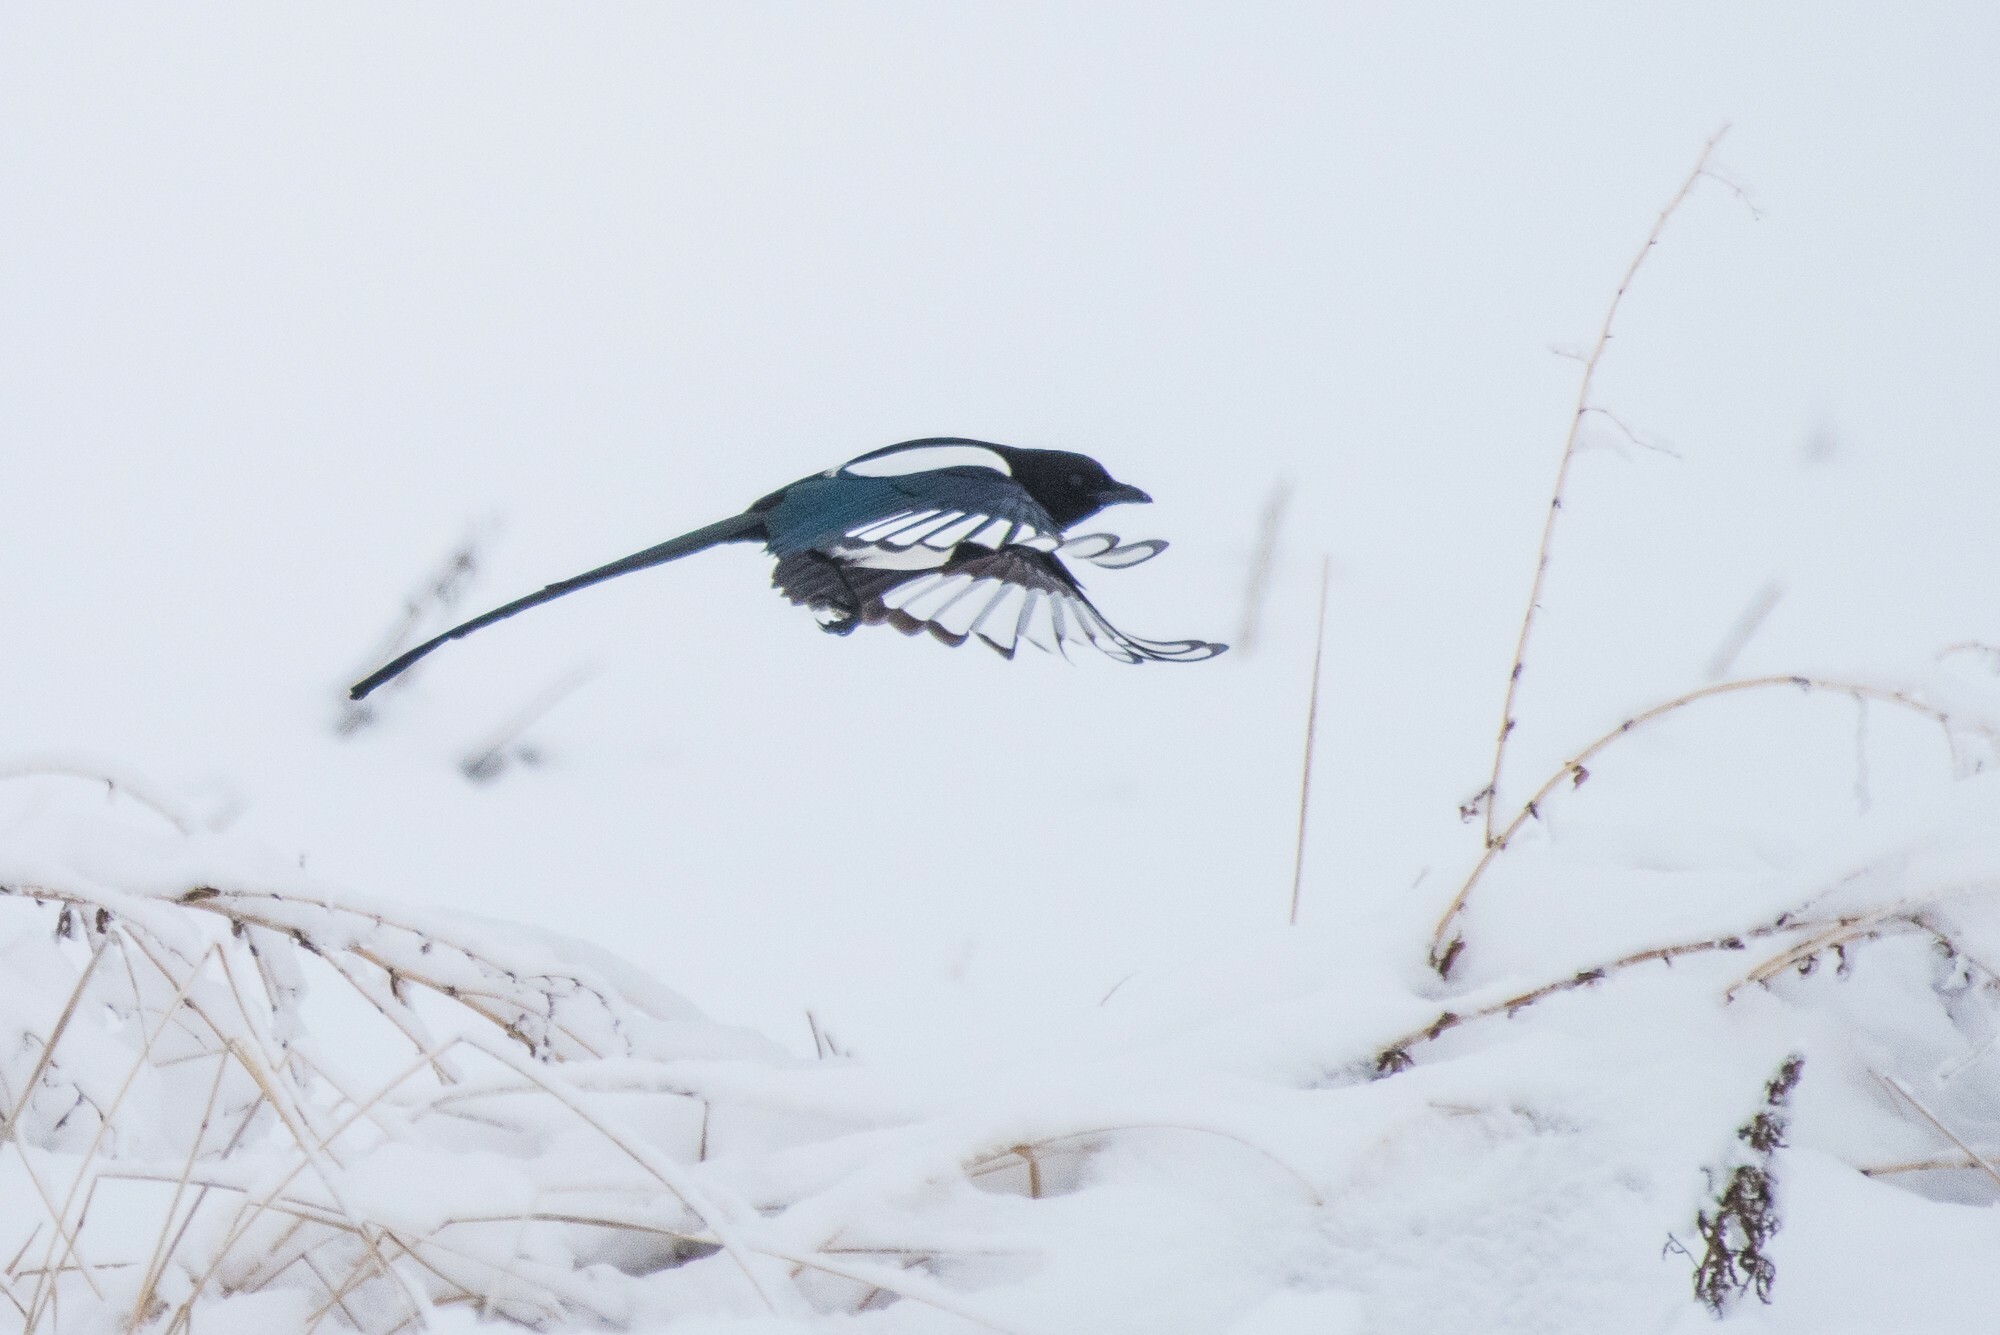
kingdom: Animalia
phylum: Chordata
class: Aves
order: Passeriformes
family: Corvidae
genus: Pica
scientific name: Pica hudsonia
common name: Black-billed magpie
